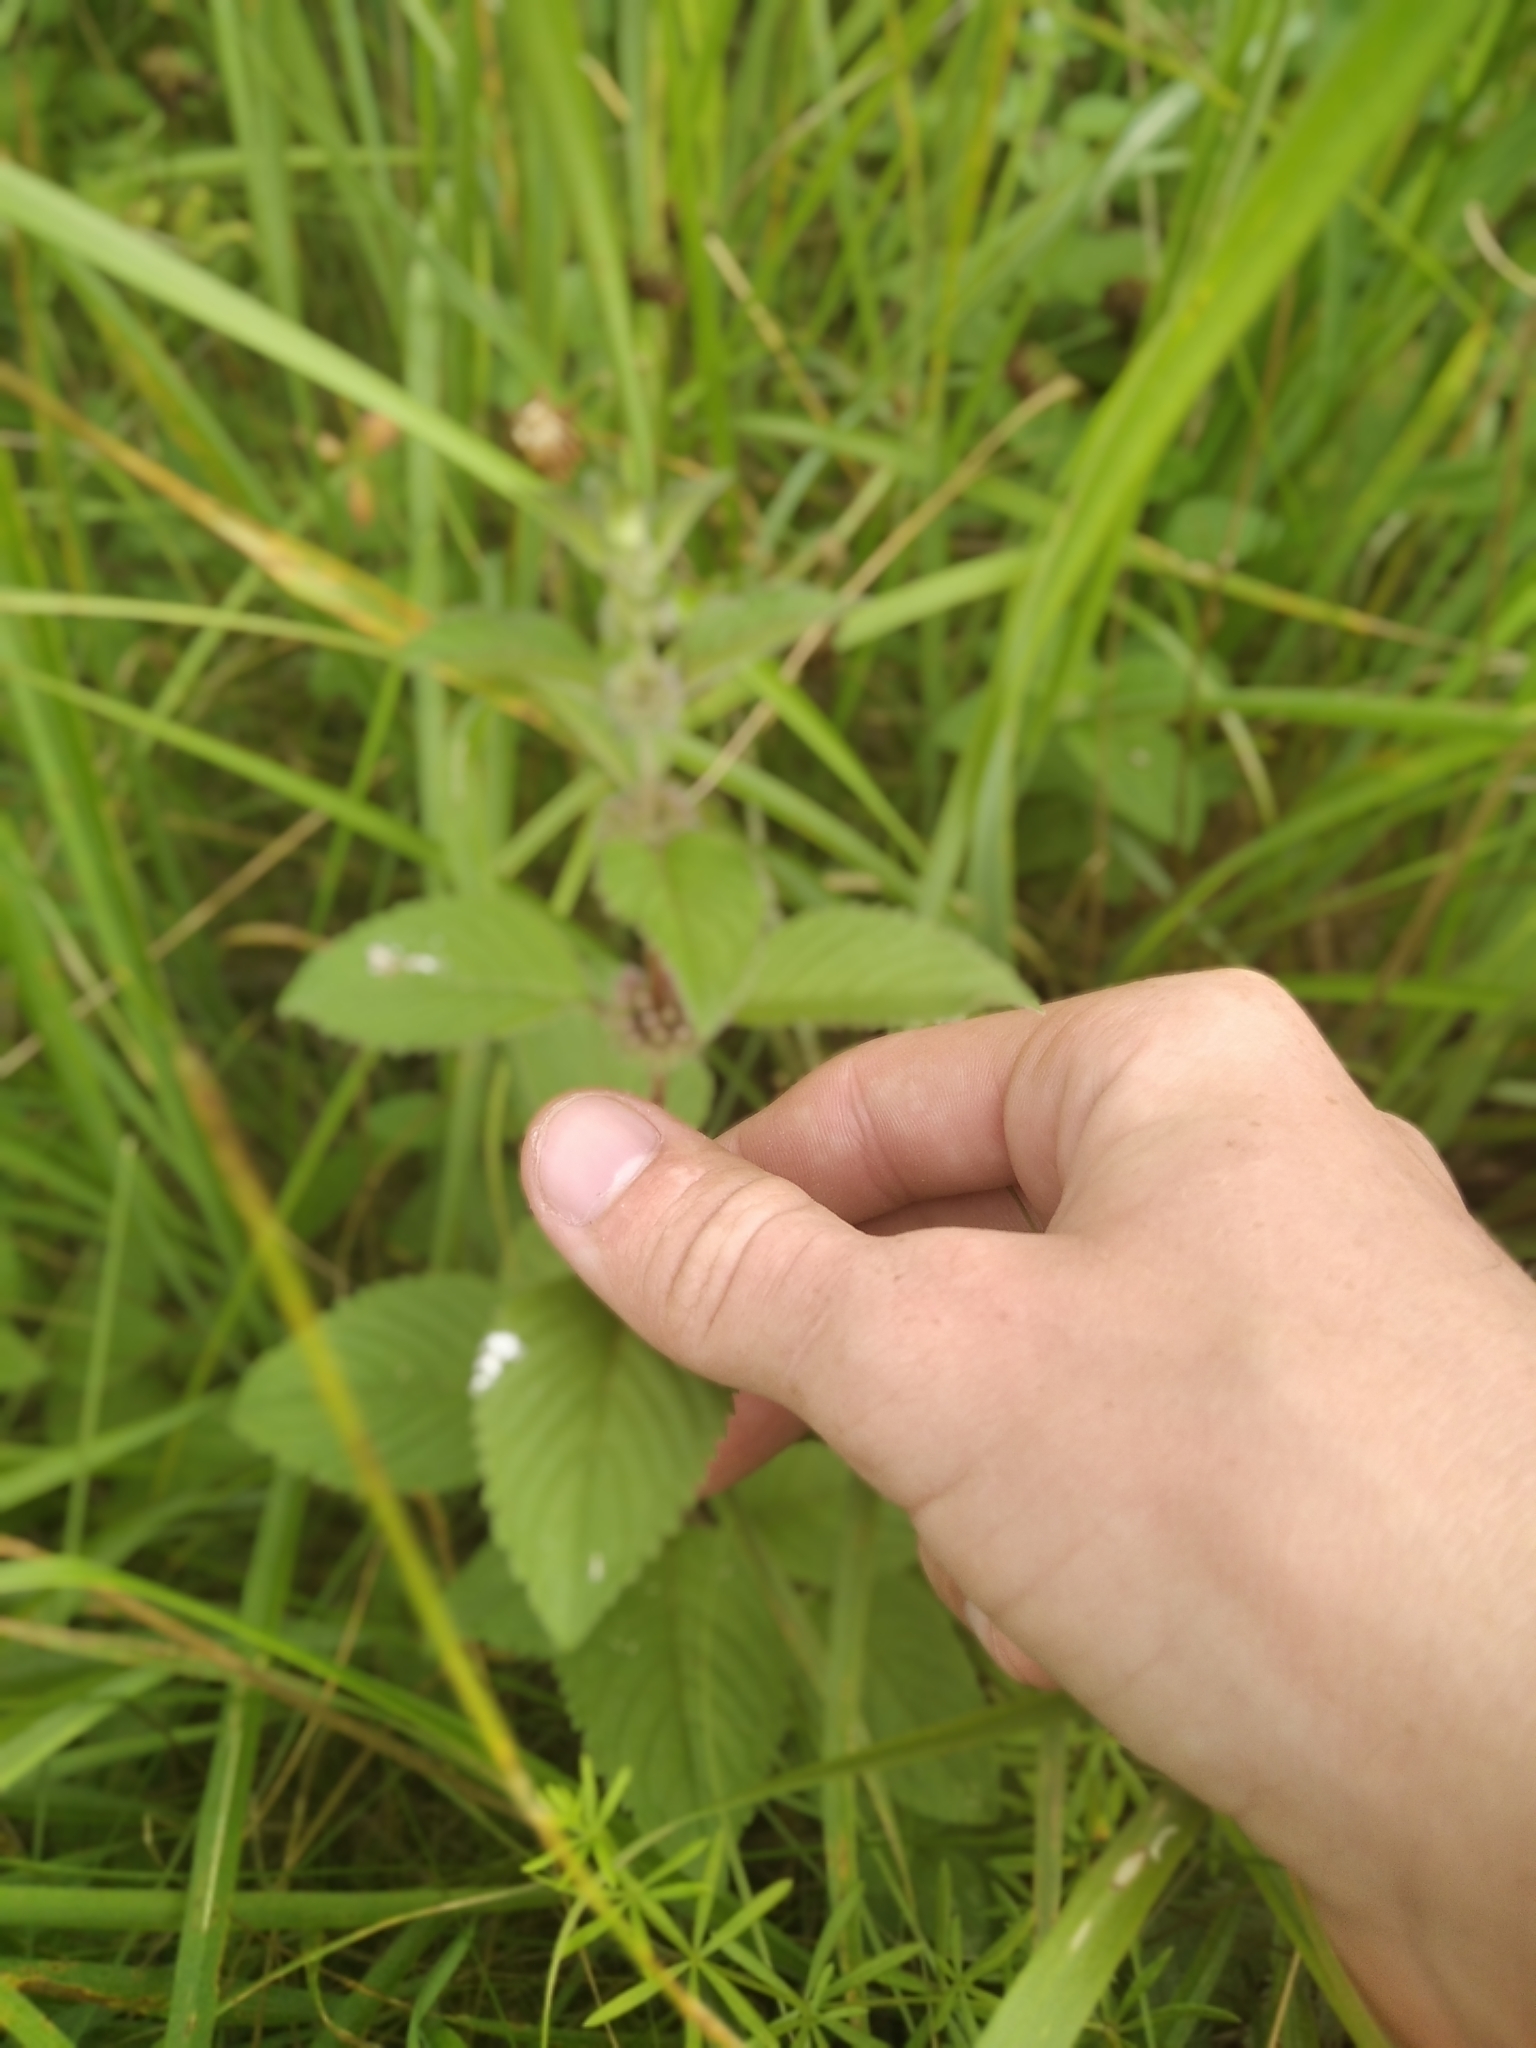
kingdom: Plantae
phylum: Tracheophyta
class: Magnoliopsida
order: Lamiales
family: Lamiaceae
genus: Mentha
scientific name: Mentha arvensis
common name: Corn mint
